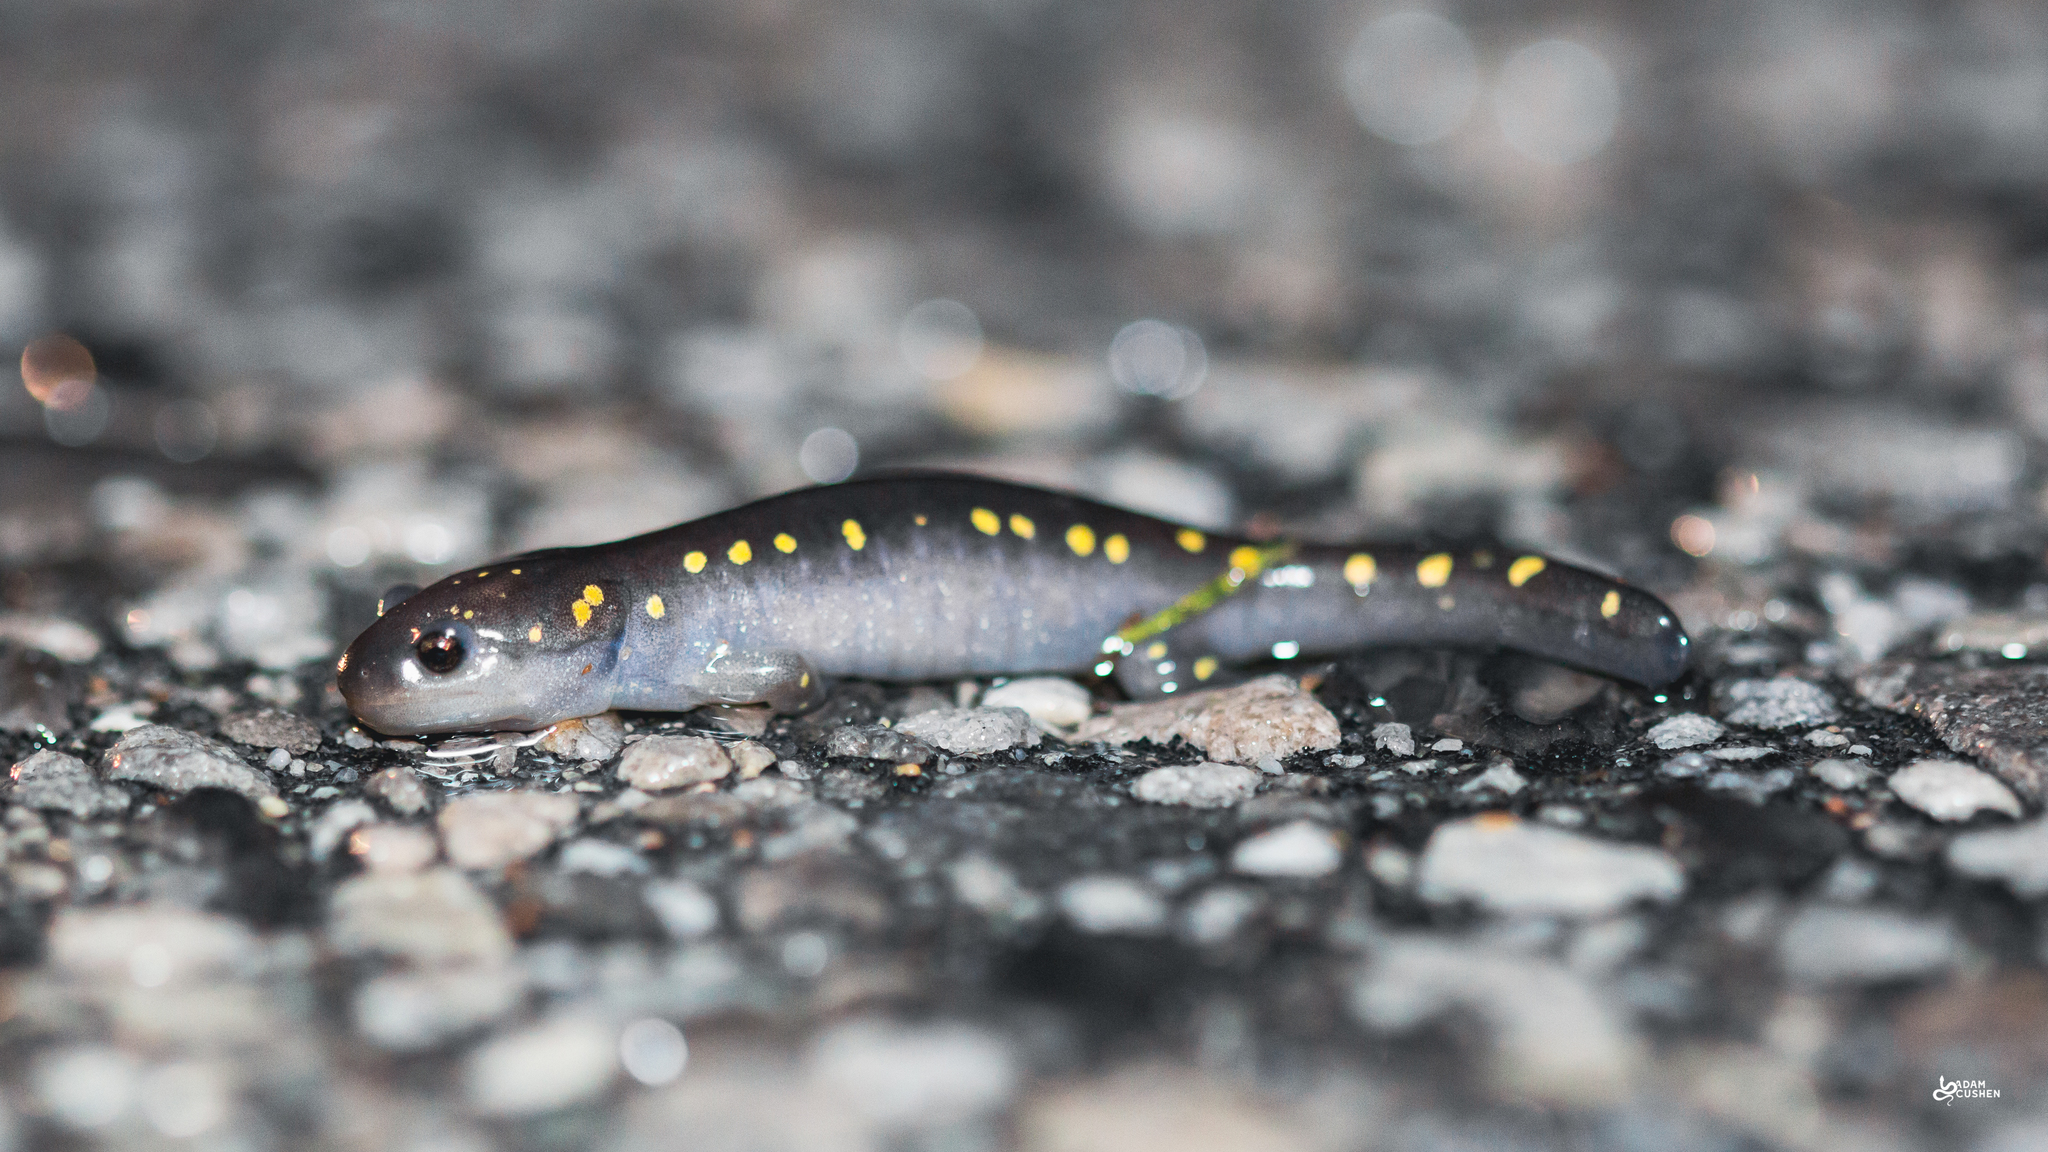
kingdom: Animalia
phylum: Chordata
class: Amphibia
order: Caudata
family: Ambystomatidae
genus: Ambystoma
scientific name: Ambystoma maculatum
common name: Spotted salamander
